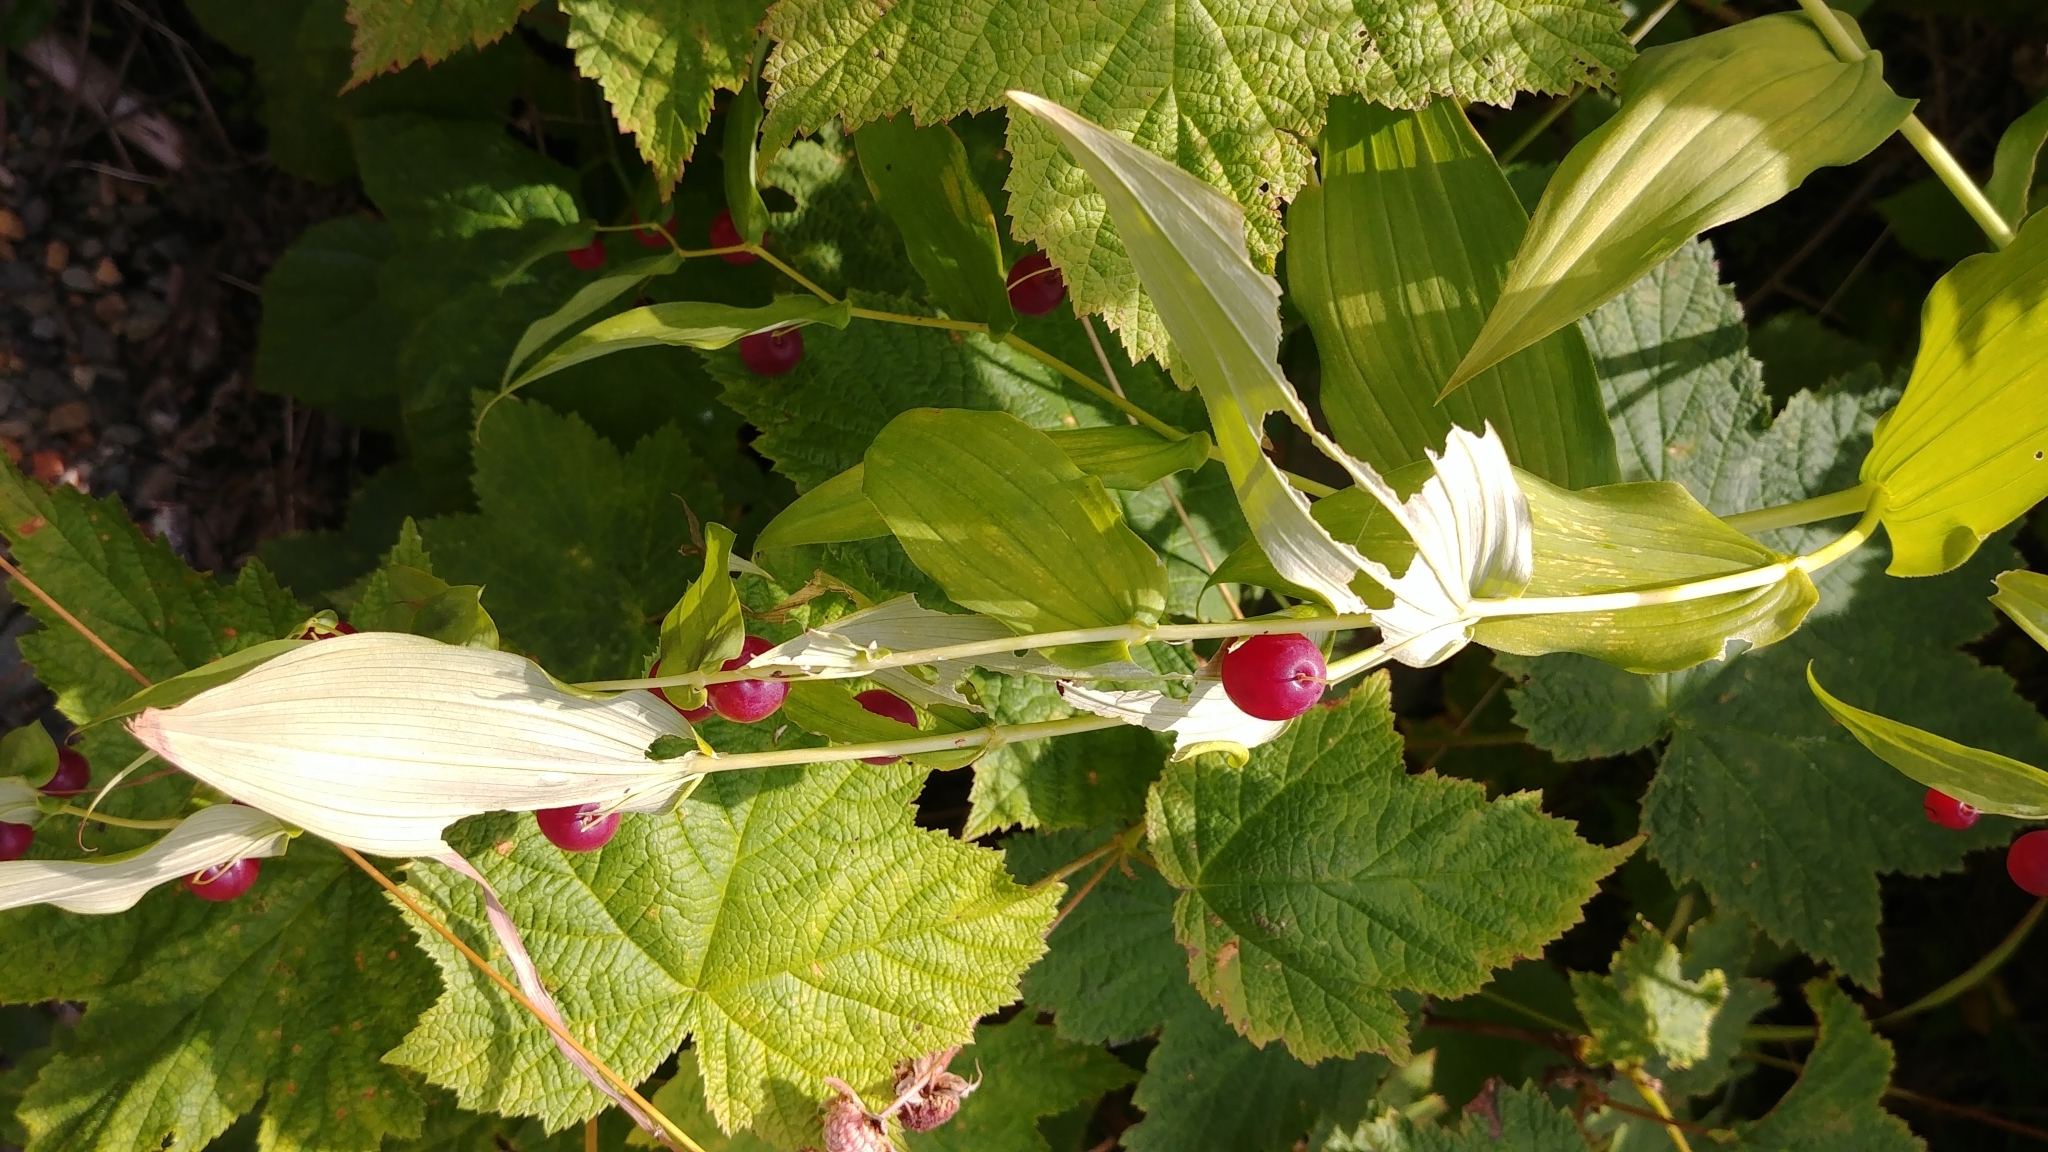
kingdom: Plantae
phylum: Tracheophyta
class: Liliopsida
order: Liliales
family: Liliaceae
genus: Streptopus
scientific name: Streptopus amplexifolius
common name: Clasp twisted stalk
